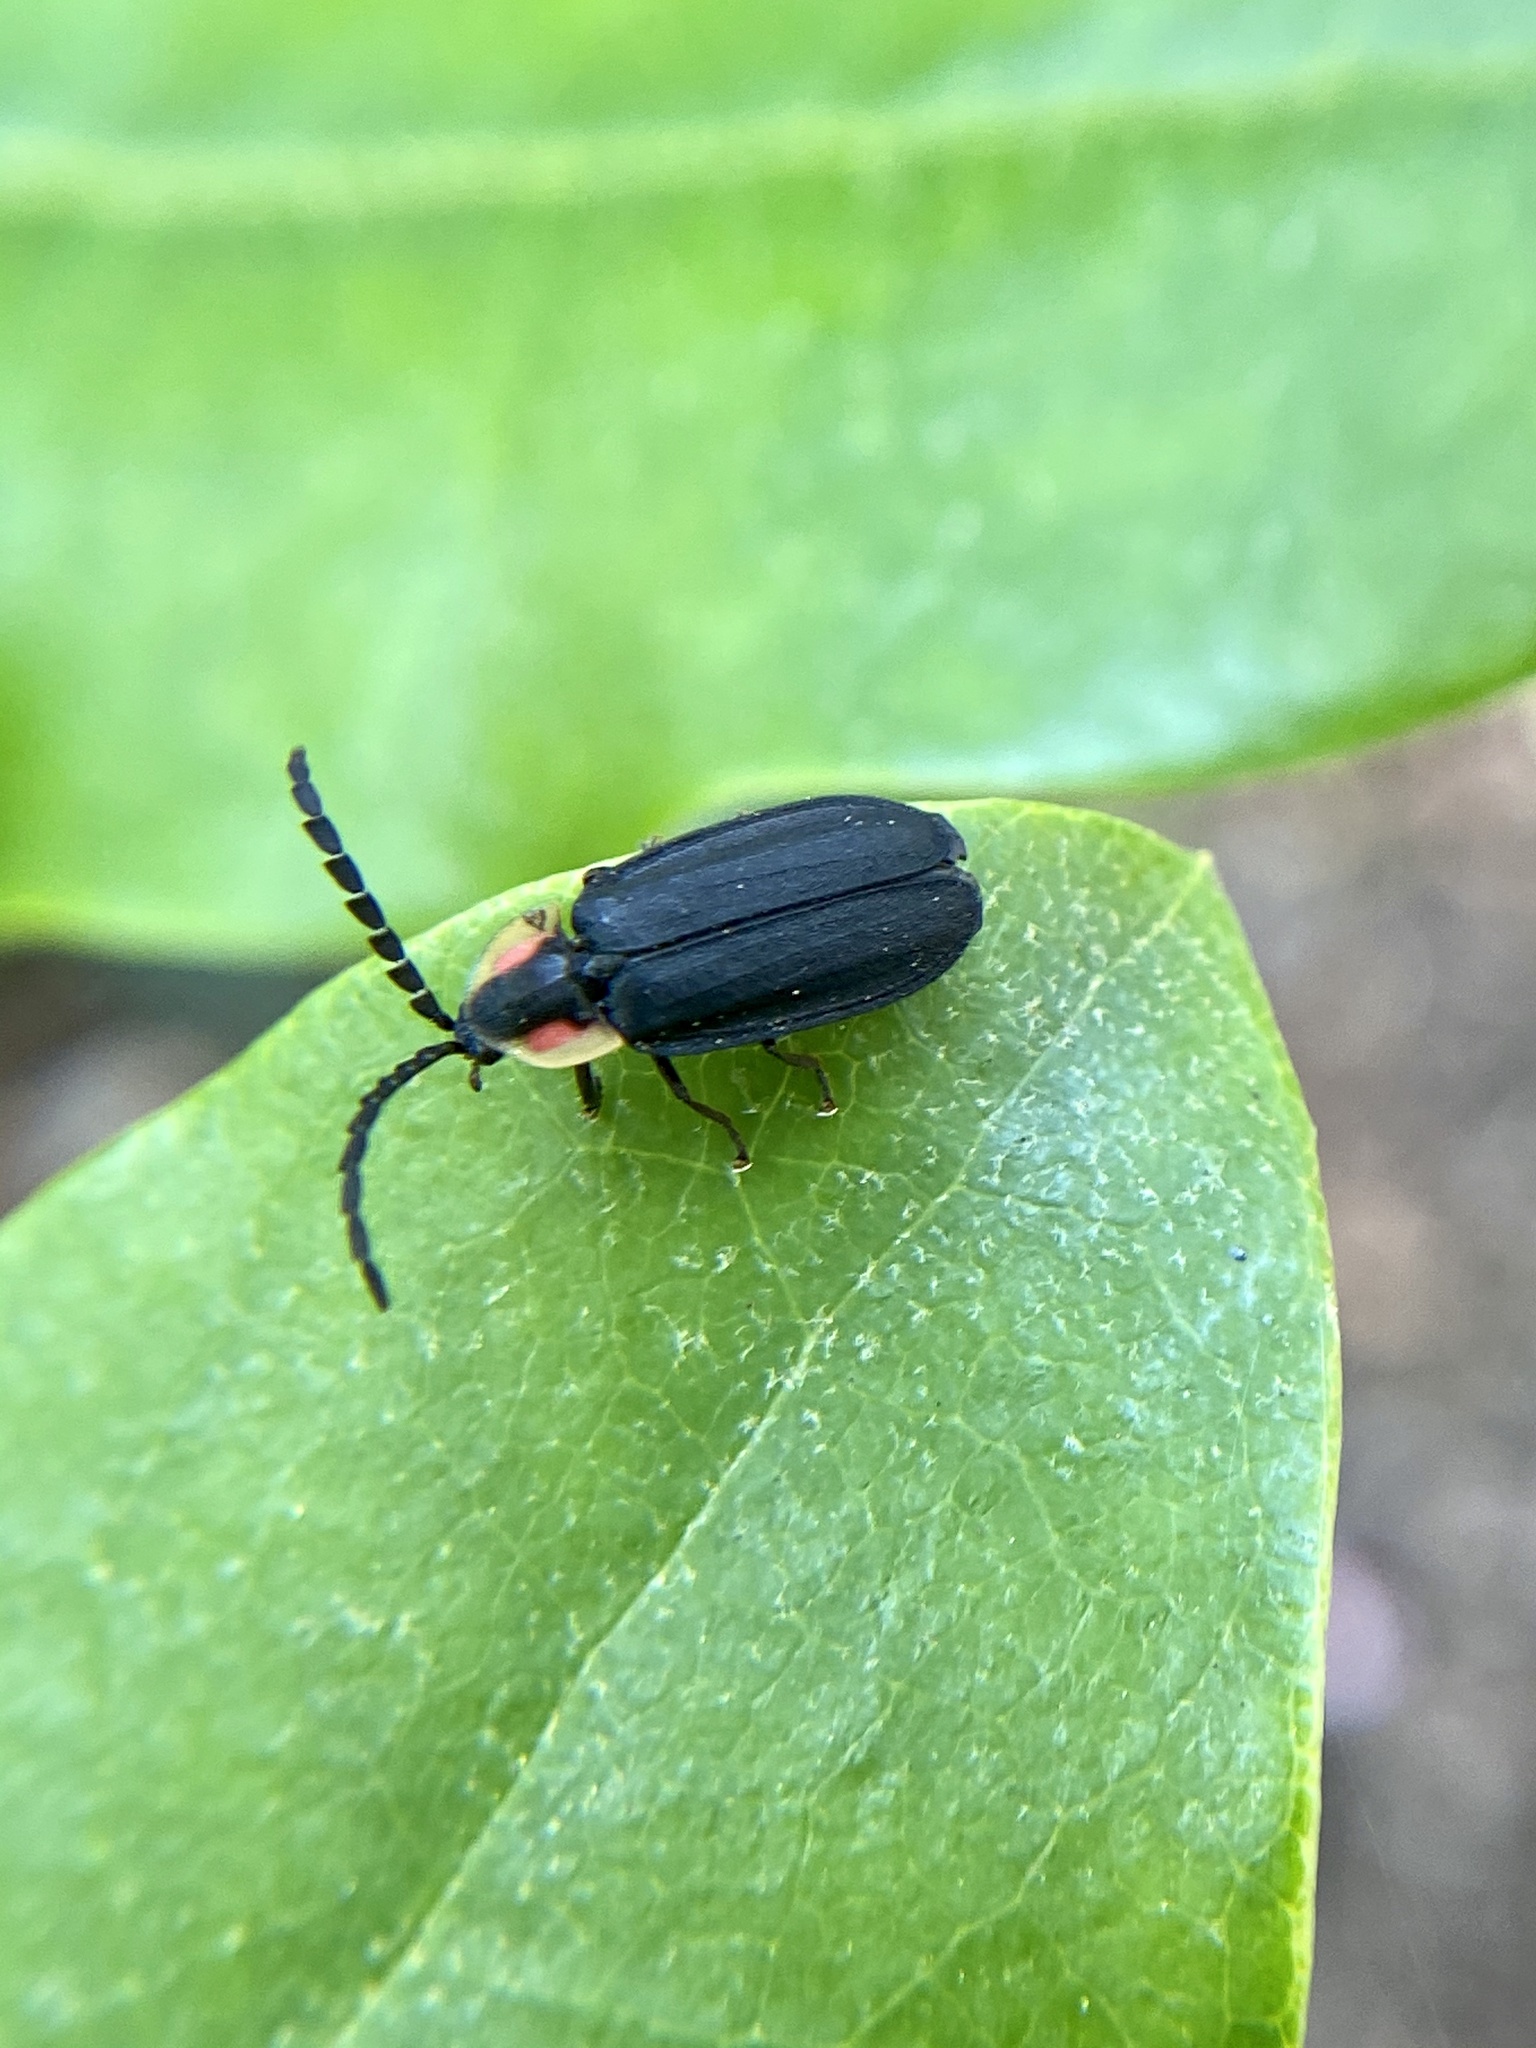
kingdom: Animalia
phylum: Arthropoda
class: Insecta
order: Coleoptera
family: Lampyridae
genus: Lucidota
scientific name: Lucidota atra
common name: Black firefly
